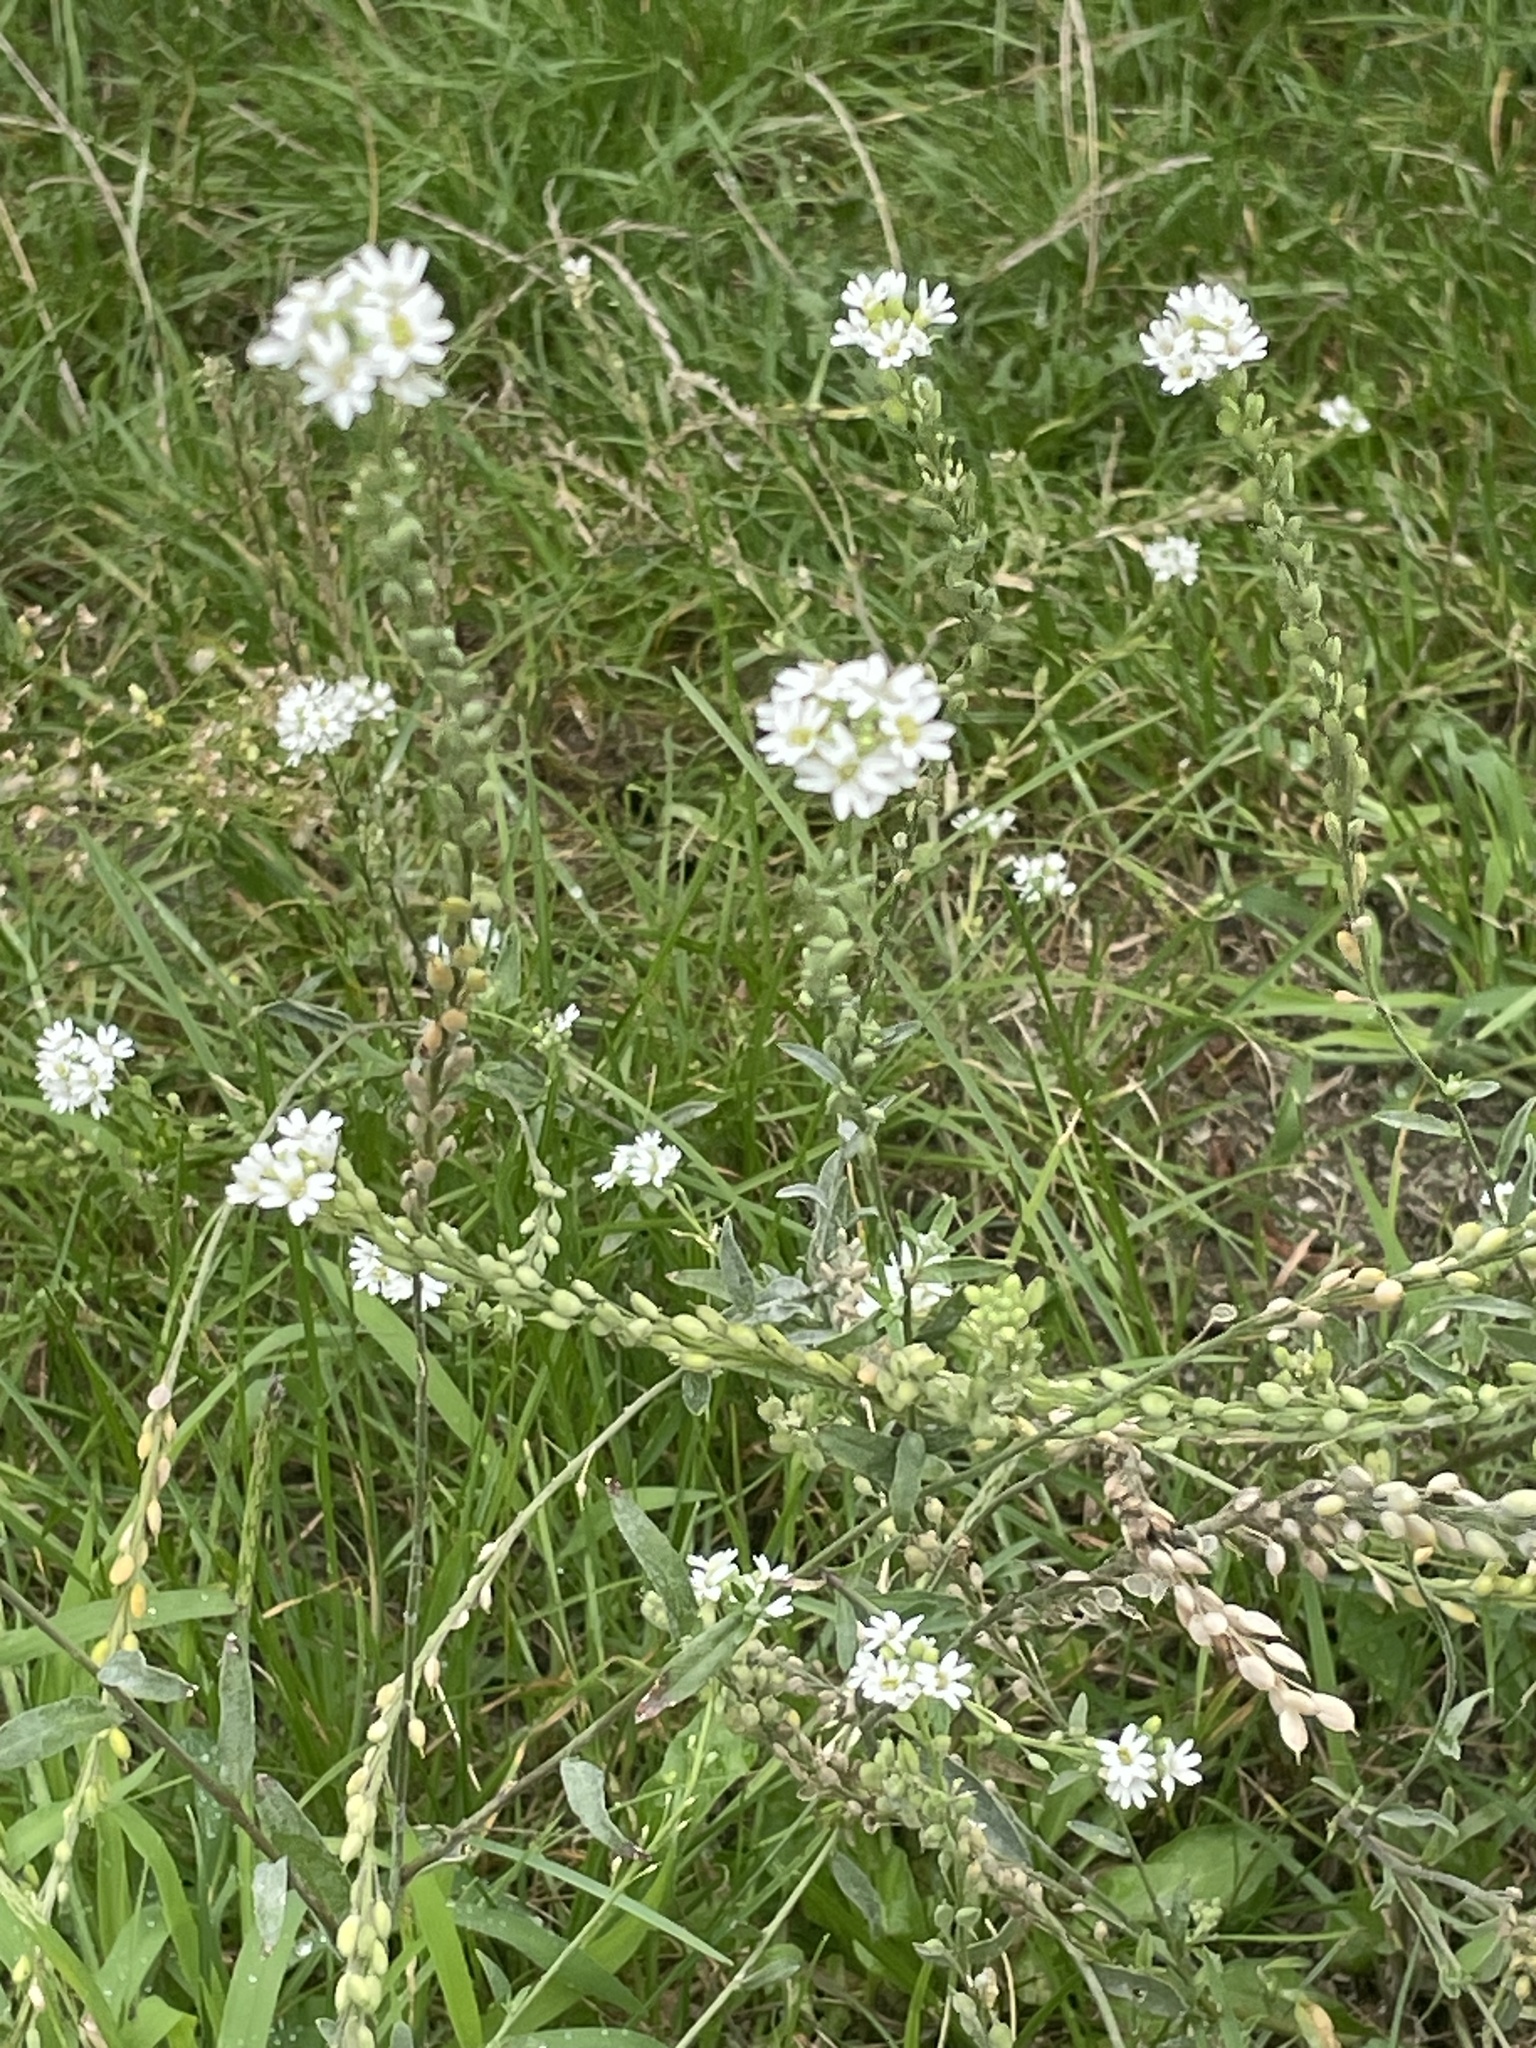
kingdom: Plantae
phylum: Tracheophyta
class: Magnoliopsida
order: Brassicales
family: Brassicaceae
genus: Berteroa
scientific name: Berteroa incana
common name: Hoary alison
